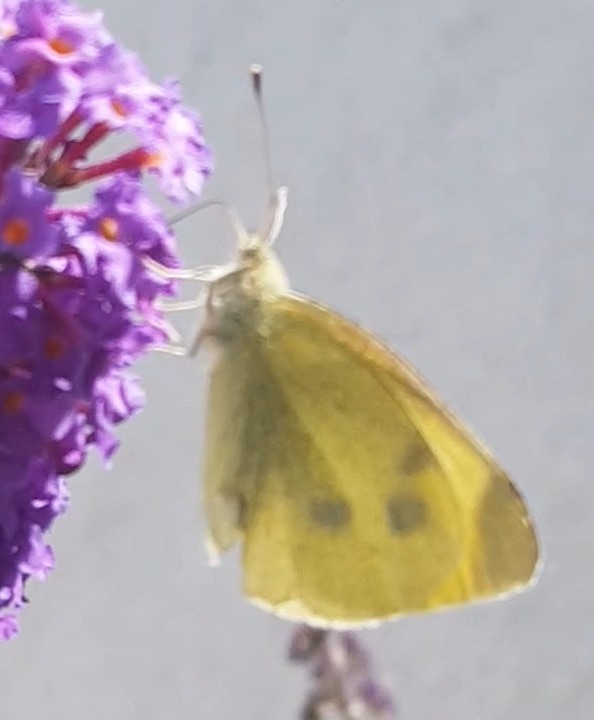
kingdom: Animalia
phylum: Arthropoda
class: Insecta
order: Lepidoptera
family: Pieridae
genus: Pieris
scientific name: Pieris rapae
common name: Small white
